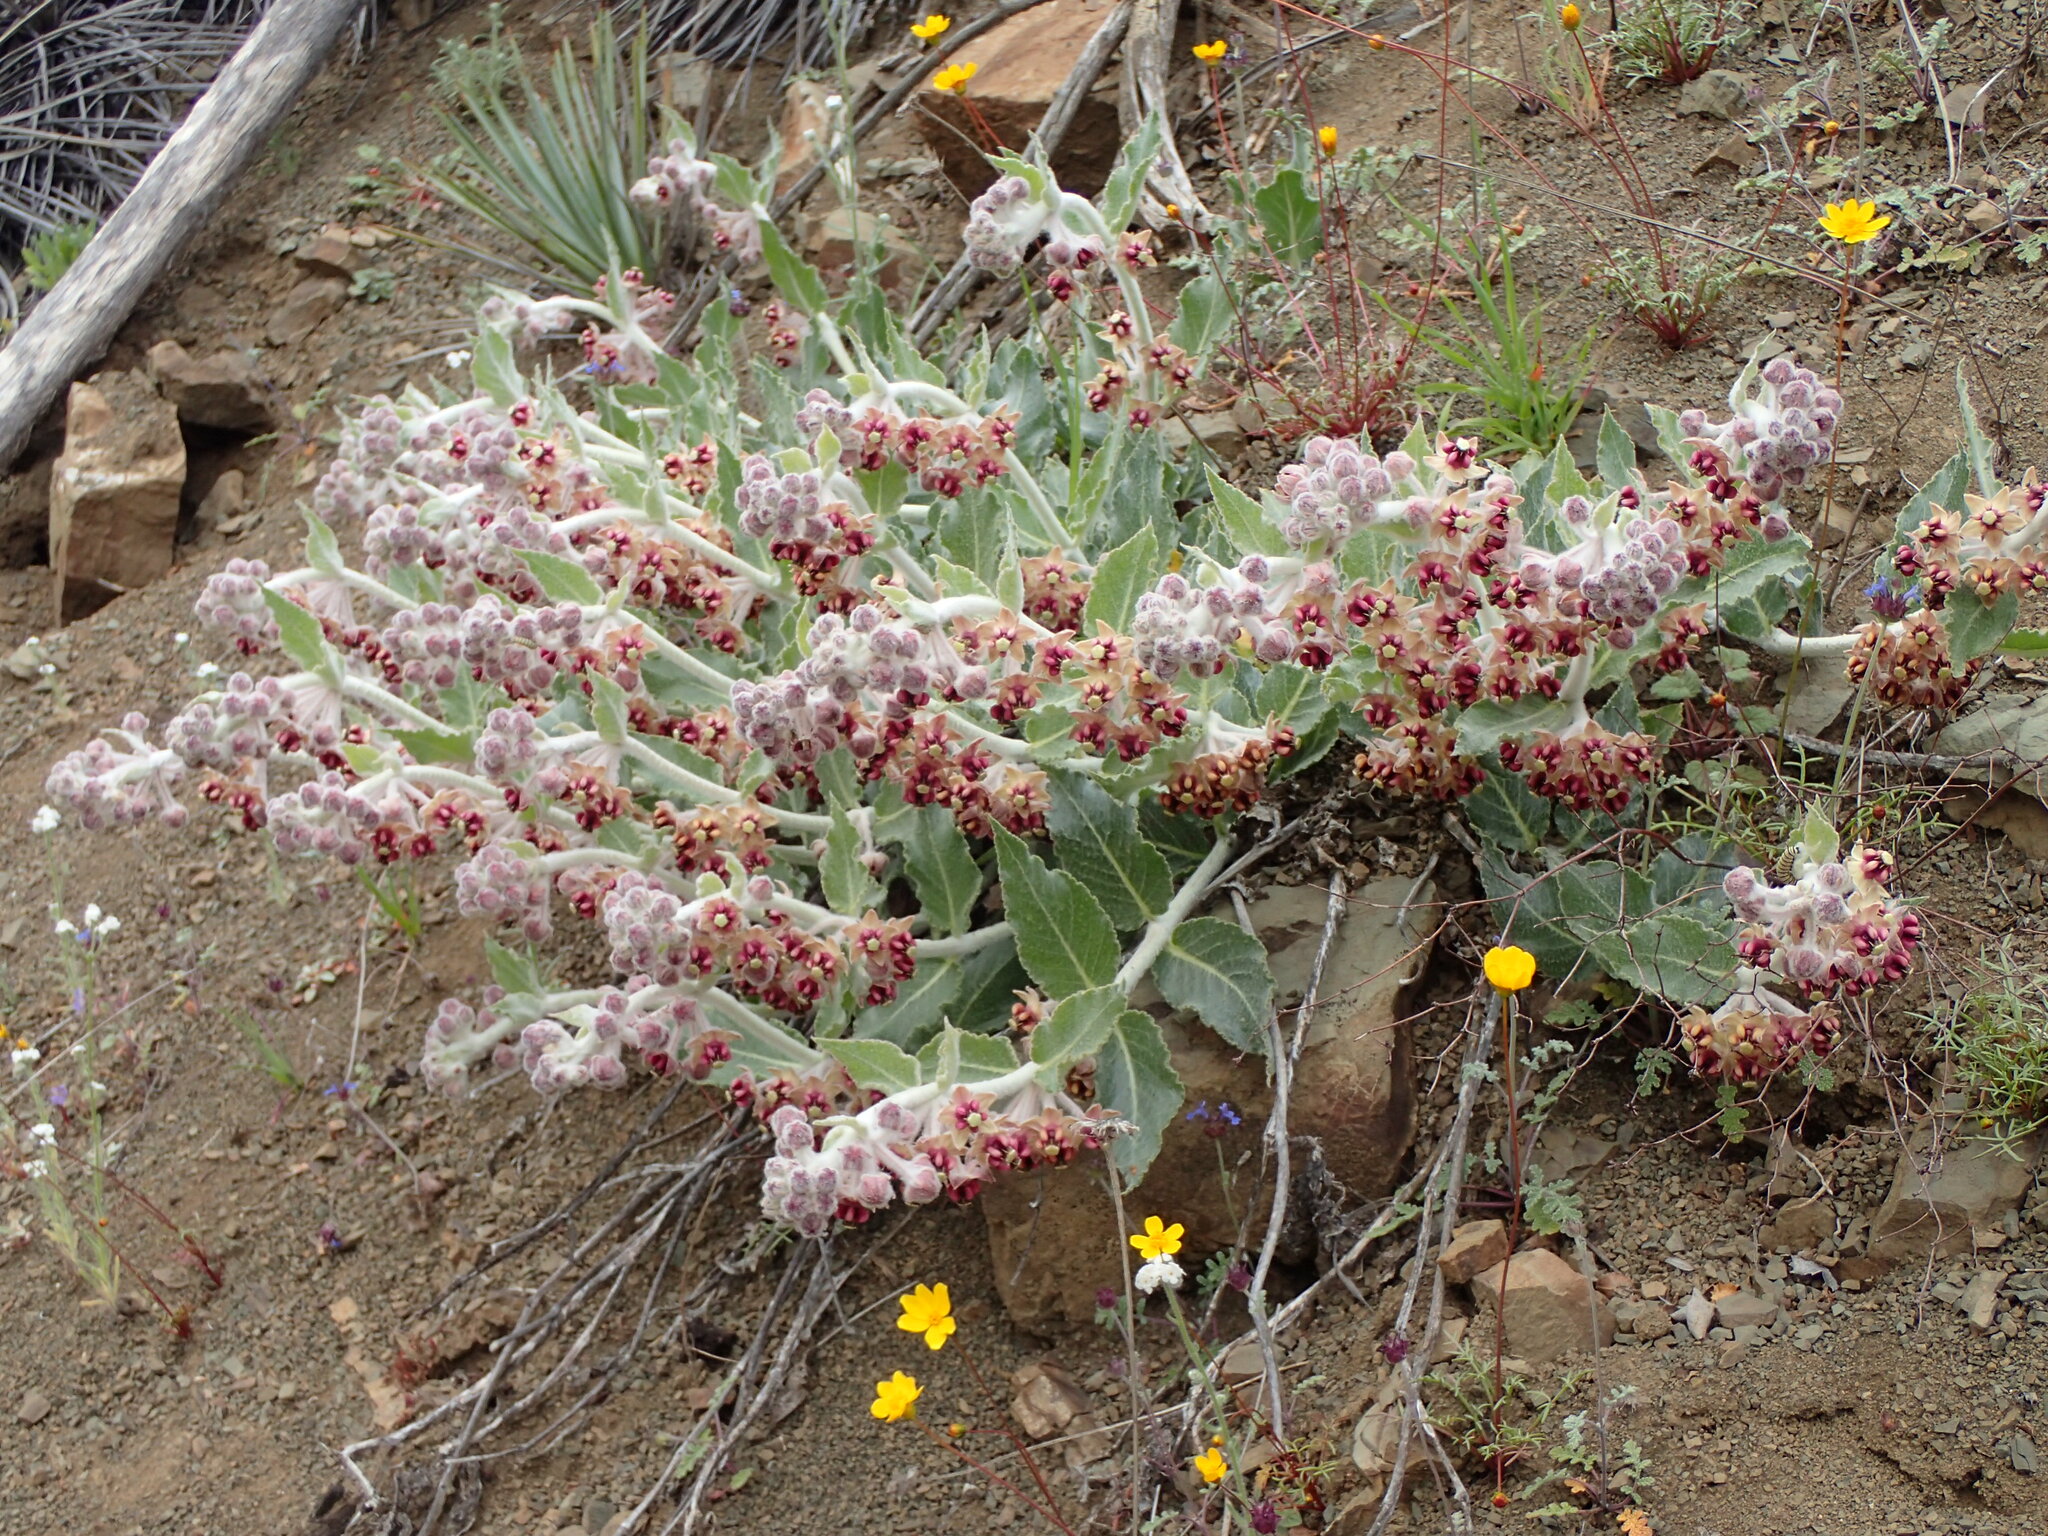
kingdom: Plantae
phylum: Tracheophyta
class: Magnoliopsida
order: Gentianales
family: Apocynaceae
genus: Asclepias
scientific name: Asclepias californica
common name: California milkweed
